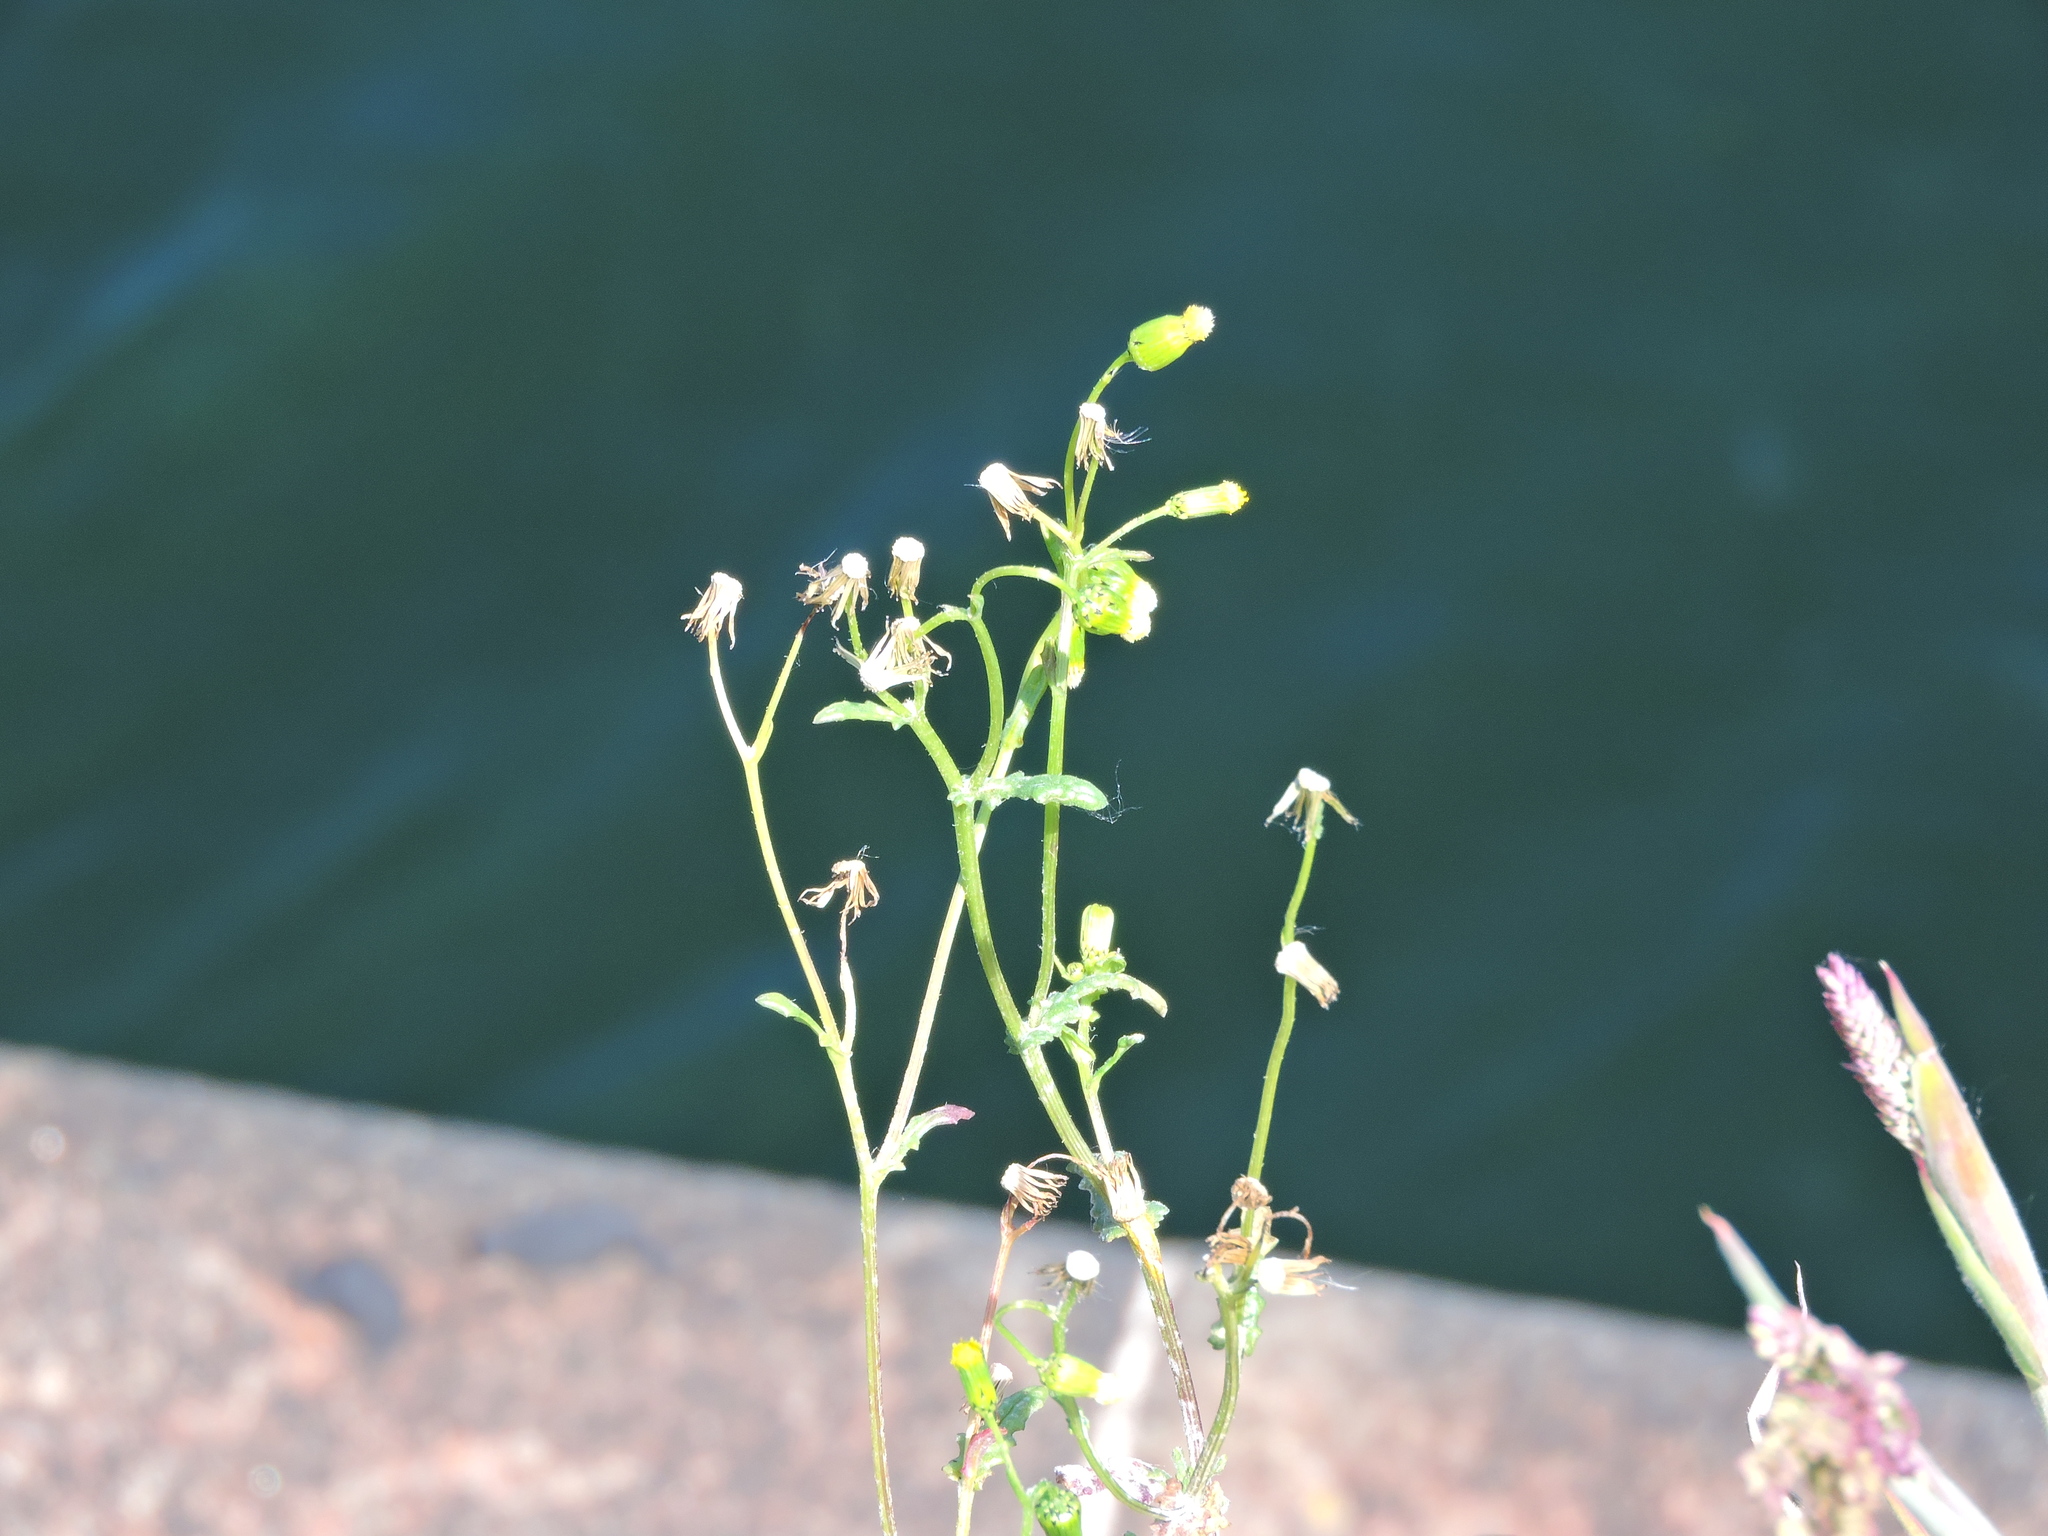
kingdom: Plantae
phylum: Tracheophyta
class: Magnoliopsida
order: Asterales
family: Asteraceae
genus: Senecio
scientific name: Senecio vulgaris
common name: Old-man-in-the-spring
